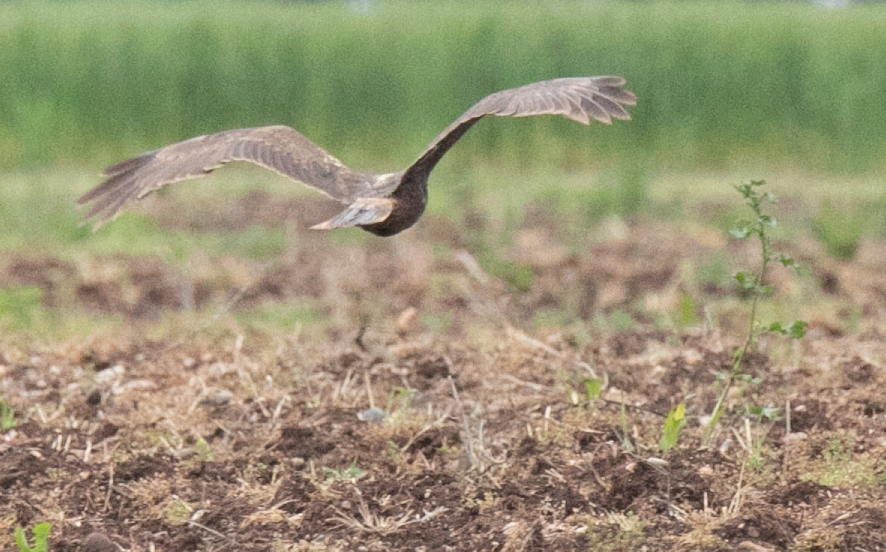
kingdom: Animalia
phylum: Chordata
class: Aves
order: Accipitriformes
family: Accipitridae
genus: Circus
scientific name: Circus aeruginosus
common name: Western marsh harrier
